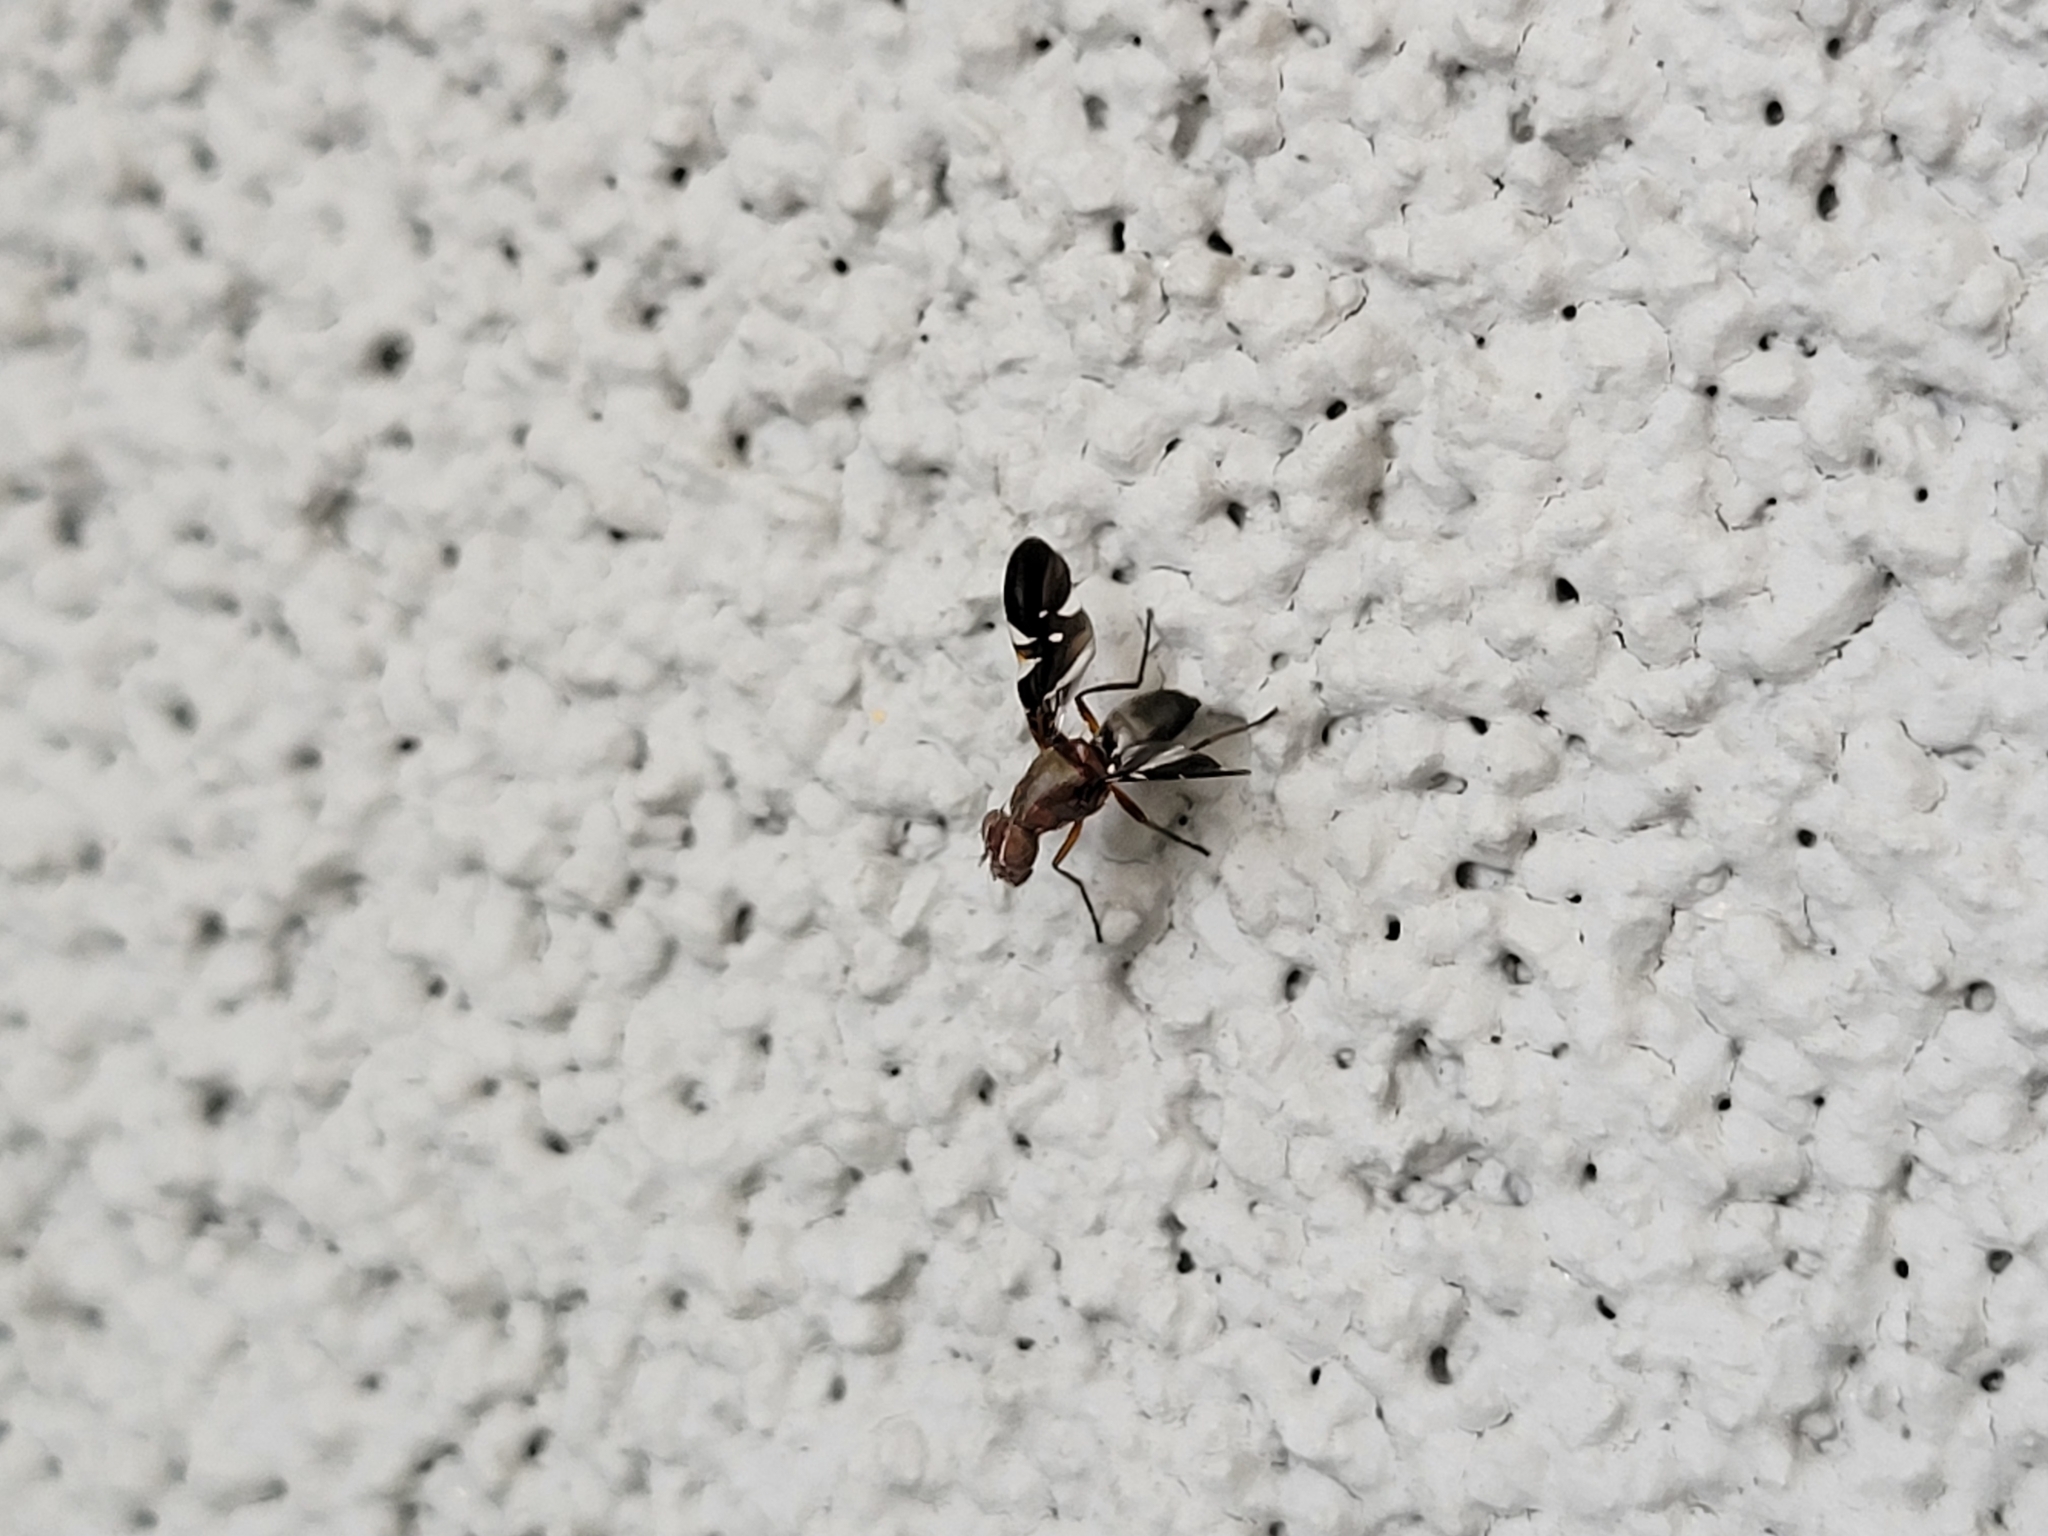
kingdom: Animalia
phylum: Arthropoda
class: Insecta
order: Diptera
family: Ulidiidae
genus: Delphinia
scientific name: Delphinia picta
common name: Common picture-winged fly
